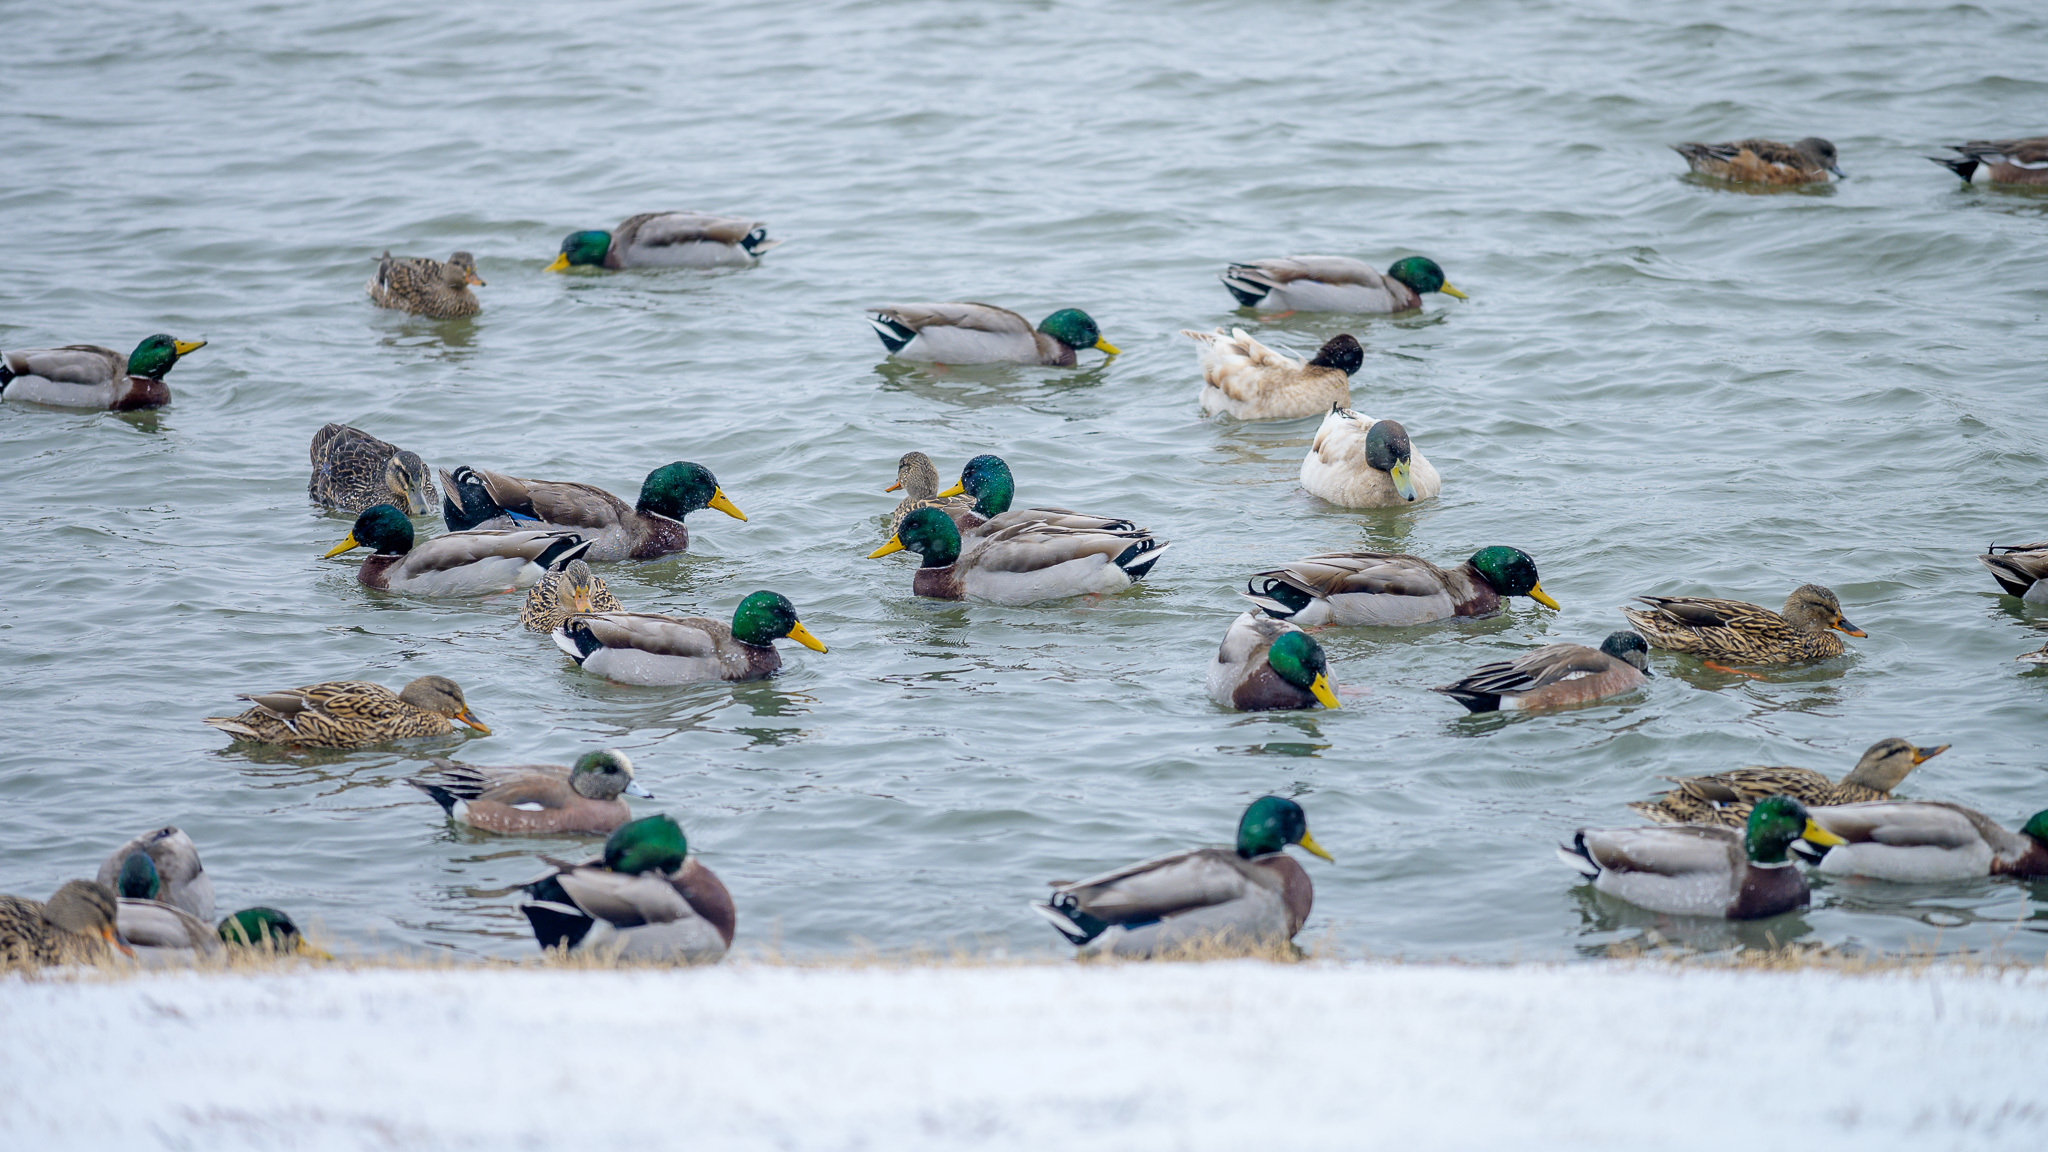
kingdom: Animalia
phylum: Chordata
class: Aves
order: Anseriformes
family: Anatidae
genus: Anas
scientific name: Anas platyrhynchos
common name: Mallard
